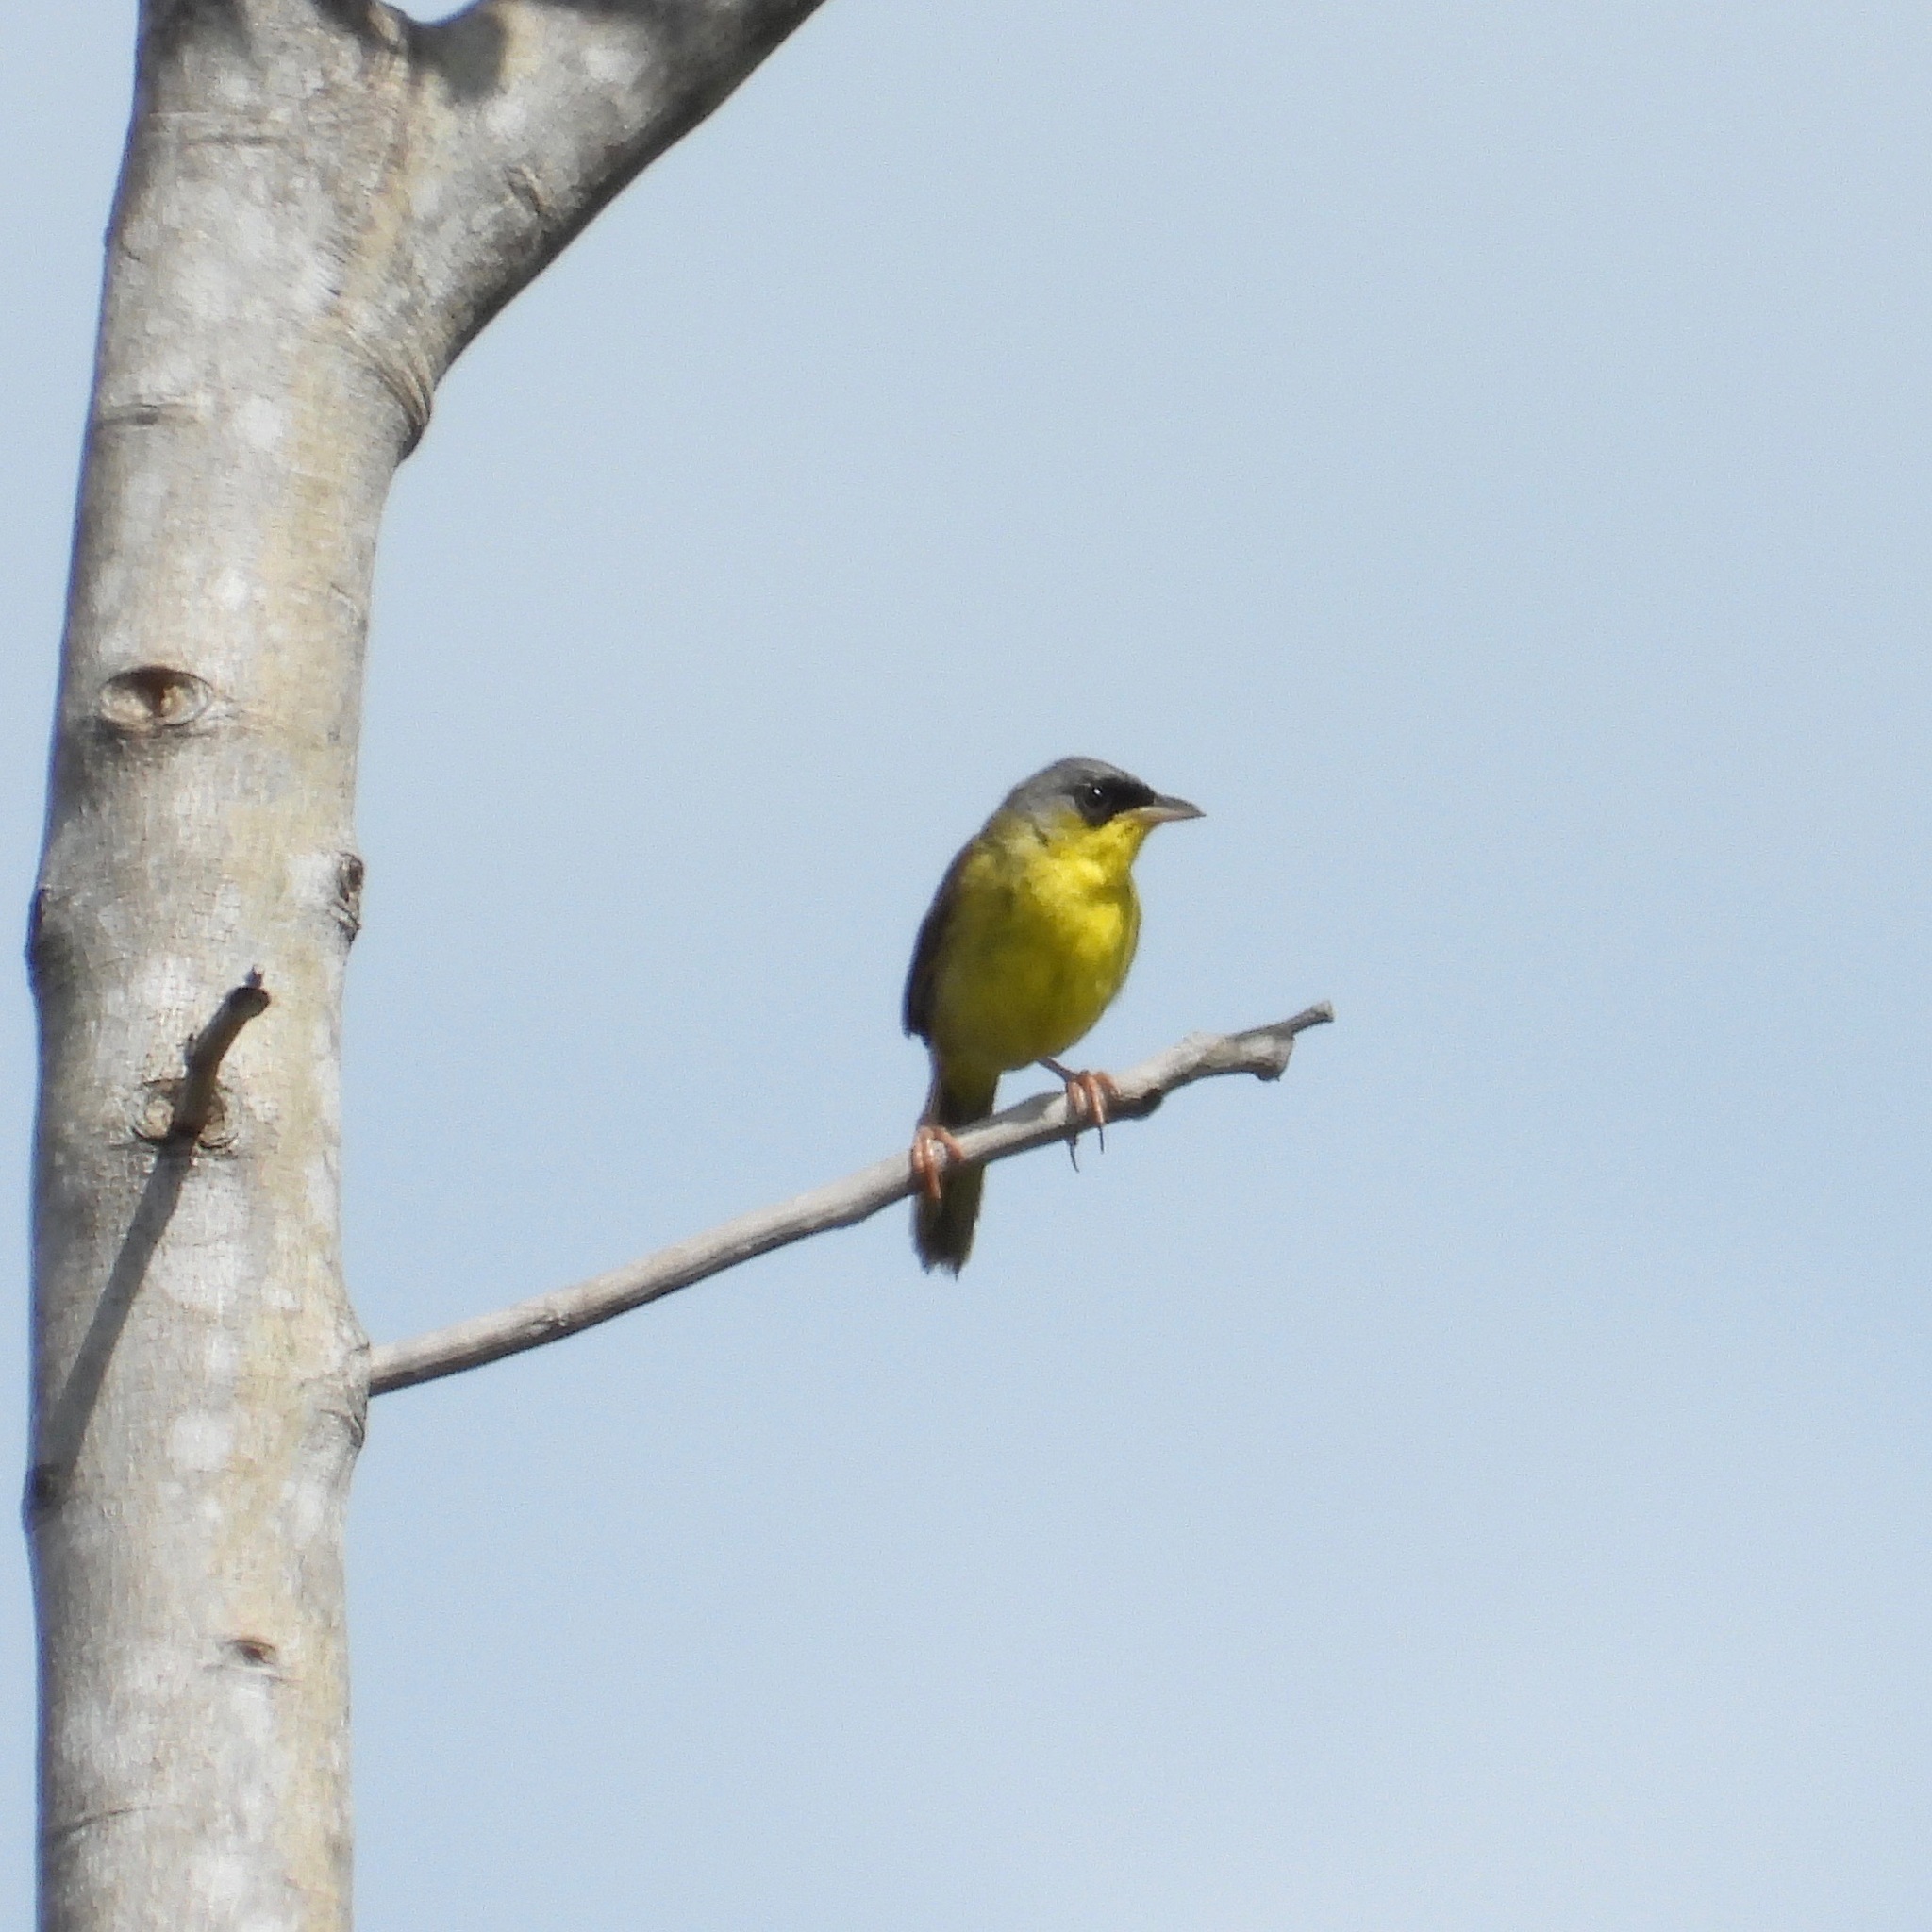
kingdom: Animalia
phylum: Chordata
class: Aves
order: Passeriformes
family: Parulidae
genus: Geothlypis
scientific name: Geothlypis poliocephala
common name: Gray-crowned yellowthroat
